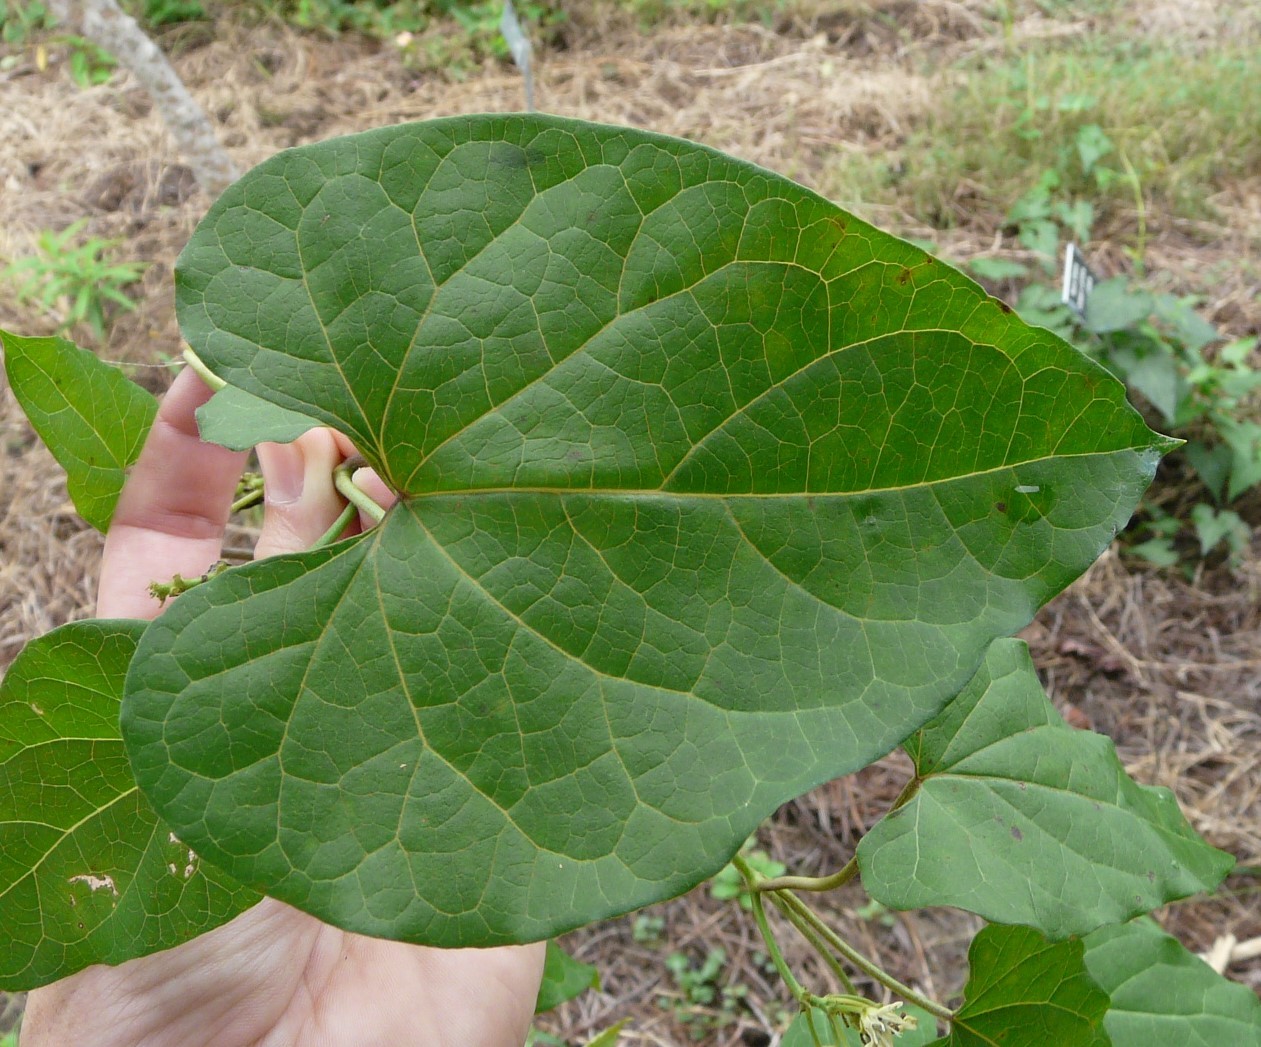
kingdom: Plantae
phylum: Tracheophyta
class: Magnoliopsida
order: Gentianales
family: Apocynaceae
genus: Cynanchum
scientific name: Cynanchum laeve
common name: Sandvine
